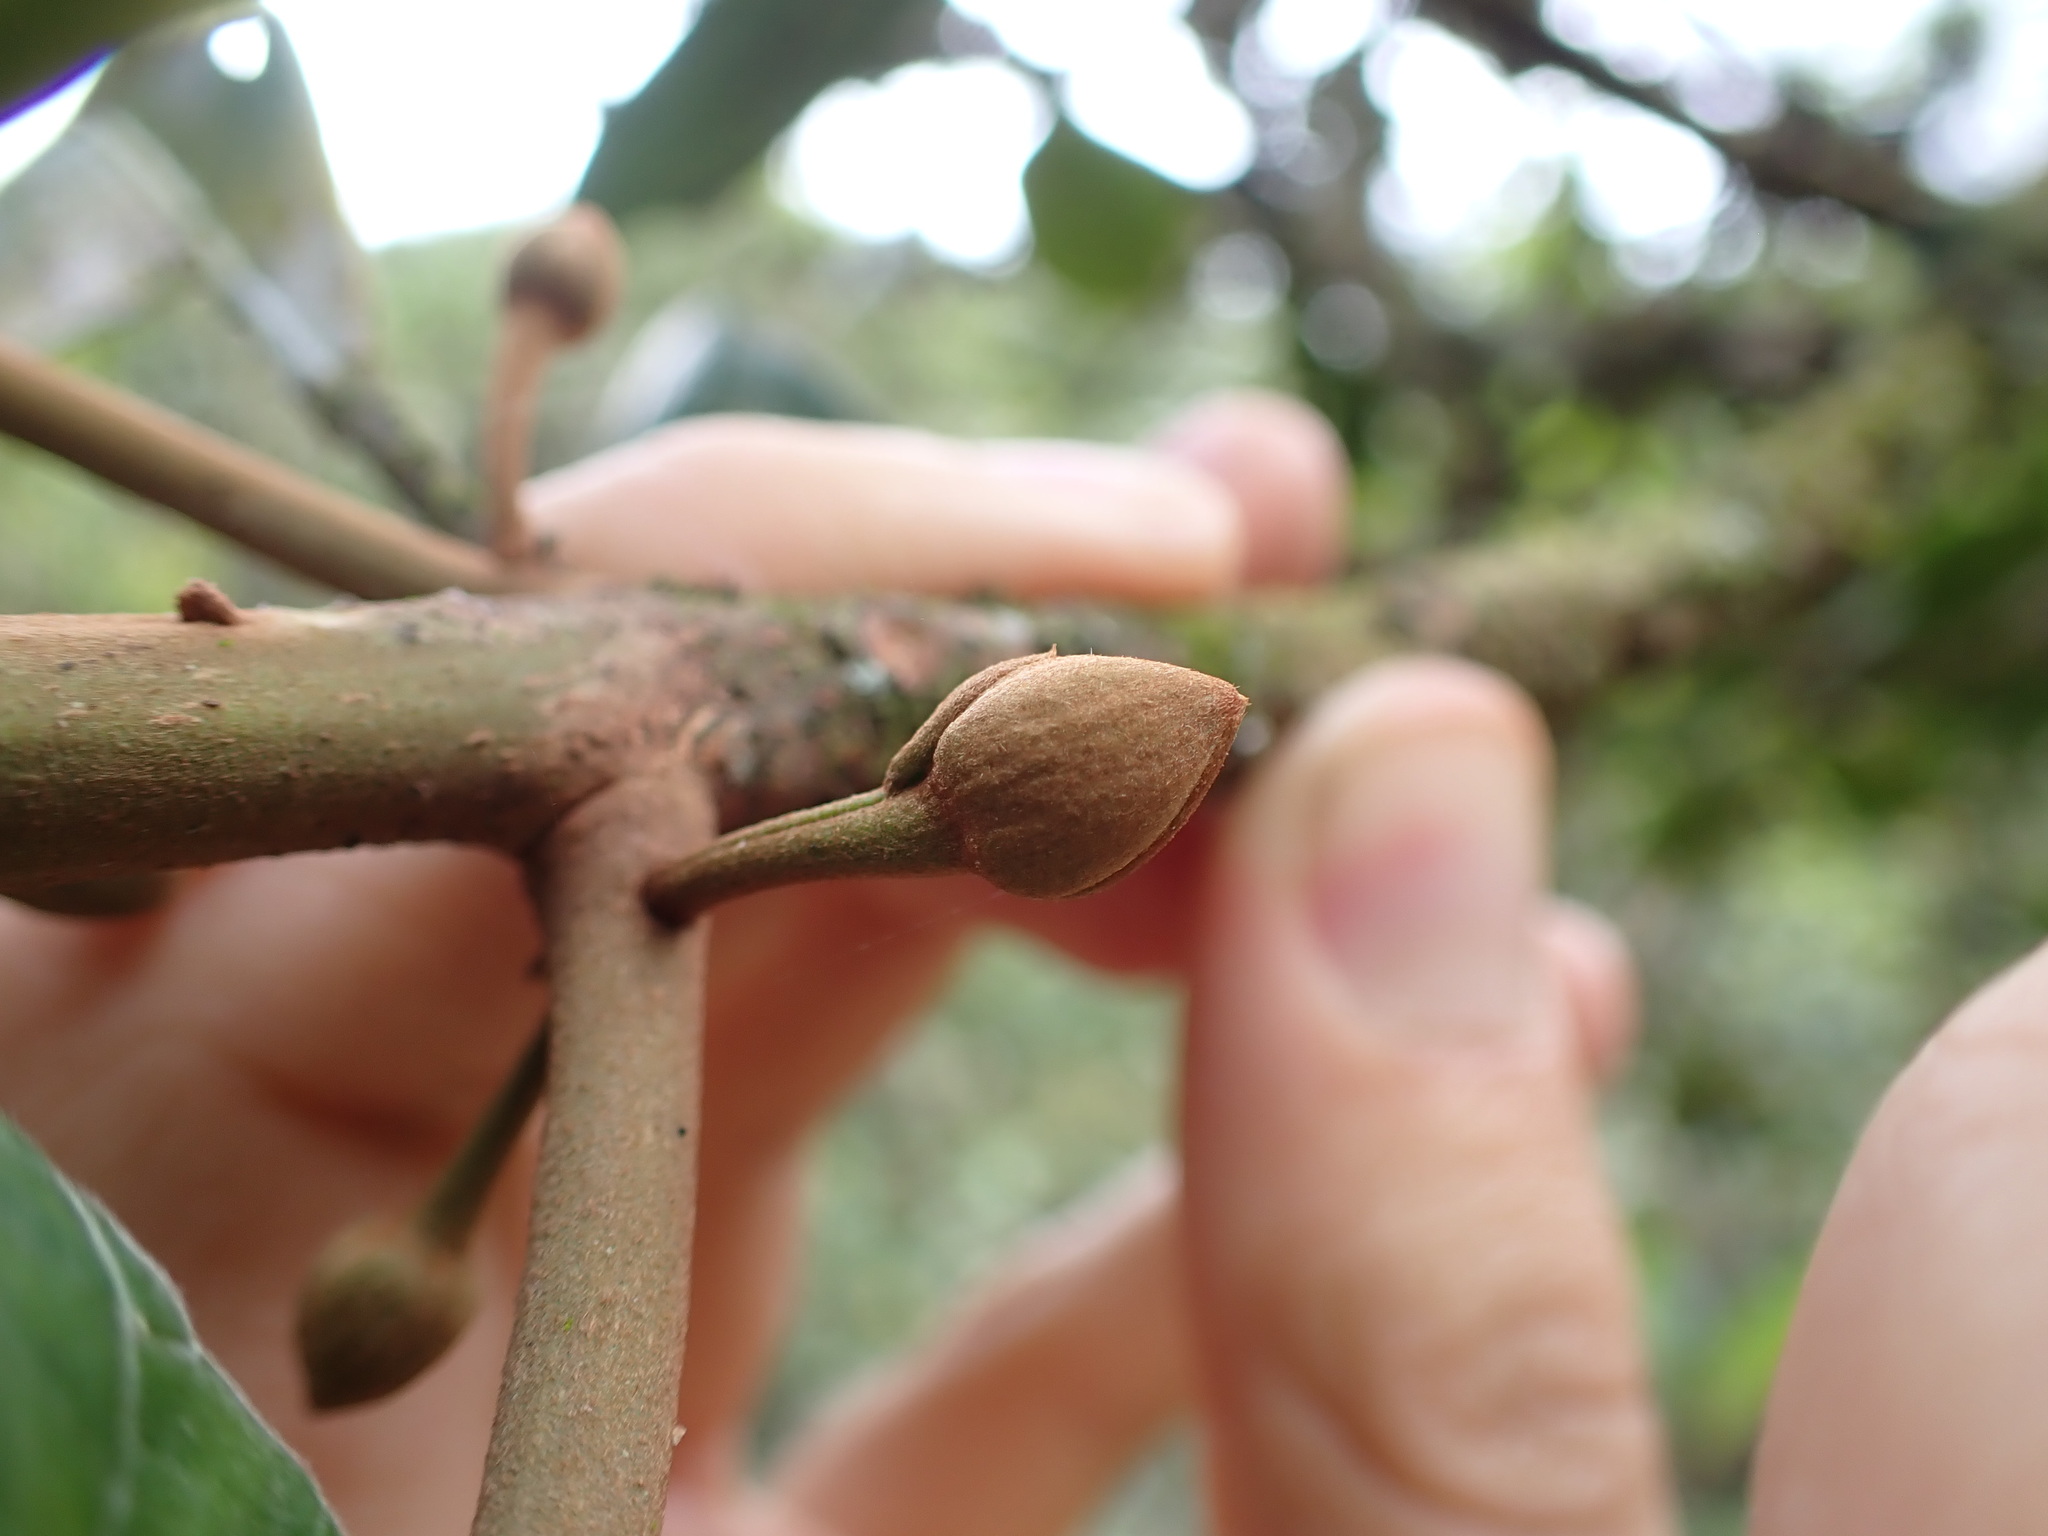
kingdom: Plantae
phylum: Tracheophyta
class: Magnoliopsida
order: Ericales
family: Sapotaceae
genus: Pouteria
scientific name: Pouteria lucuma
